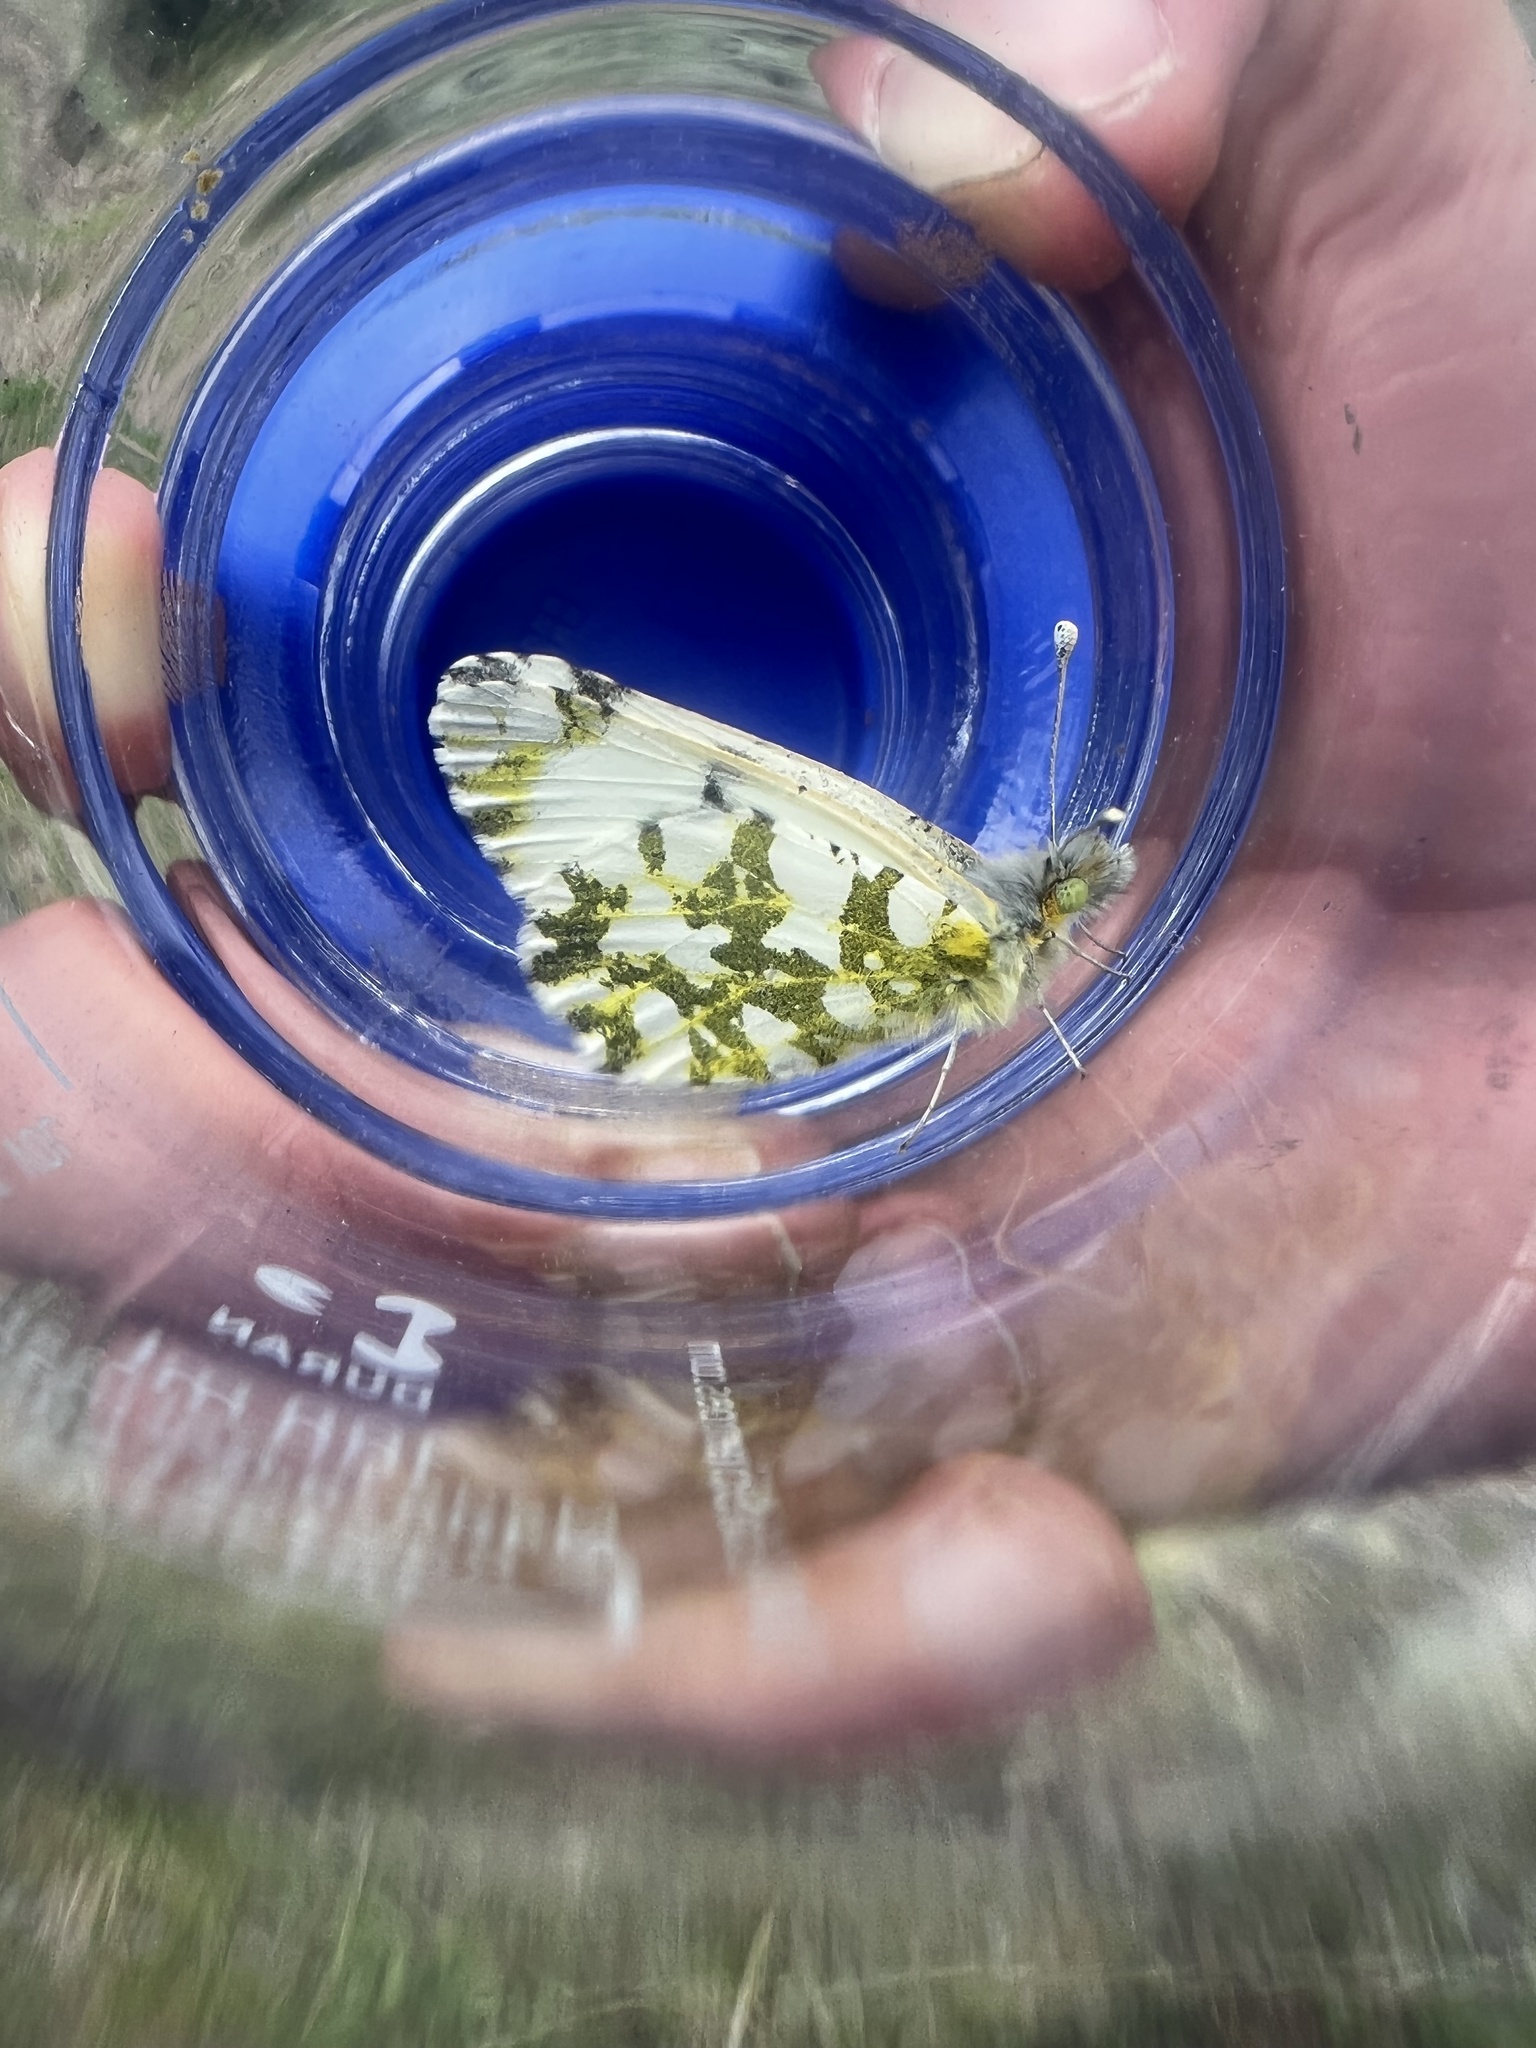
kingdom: Animalia
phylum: Arthropoda
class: Insecta
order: Lepidoptera
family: Pieridae
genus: Euchloe
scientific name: Euchloe ausonides
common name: Creamy marblewing
